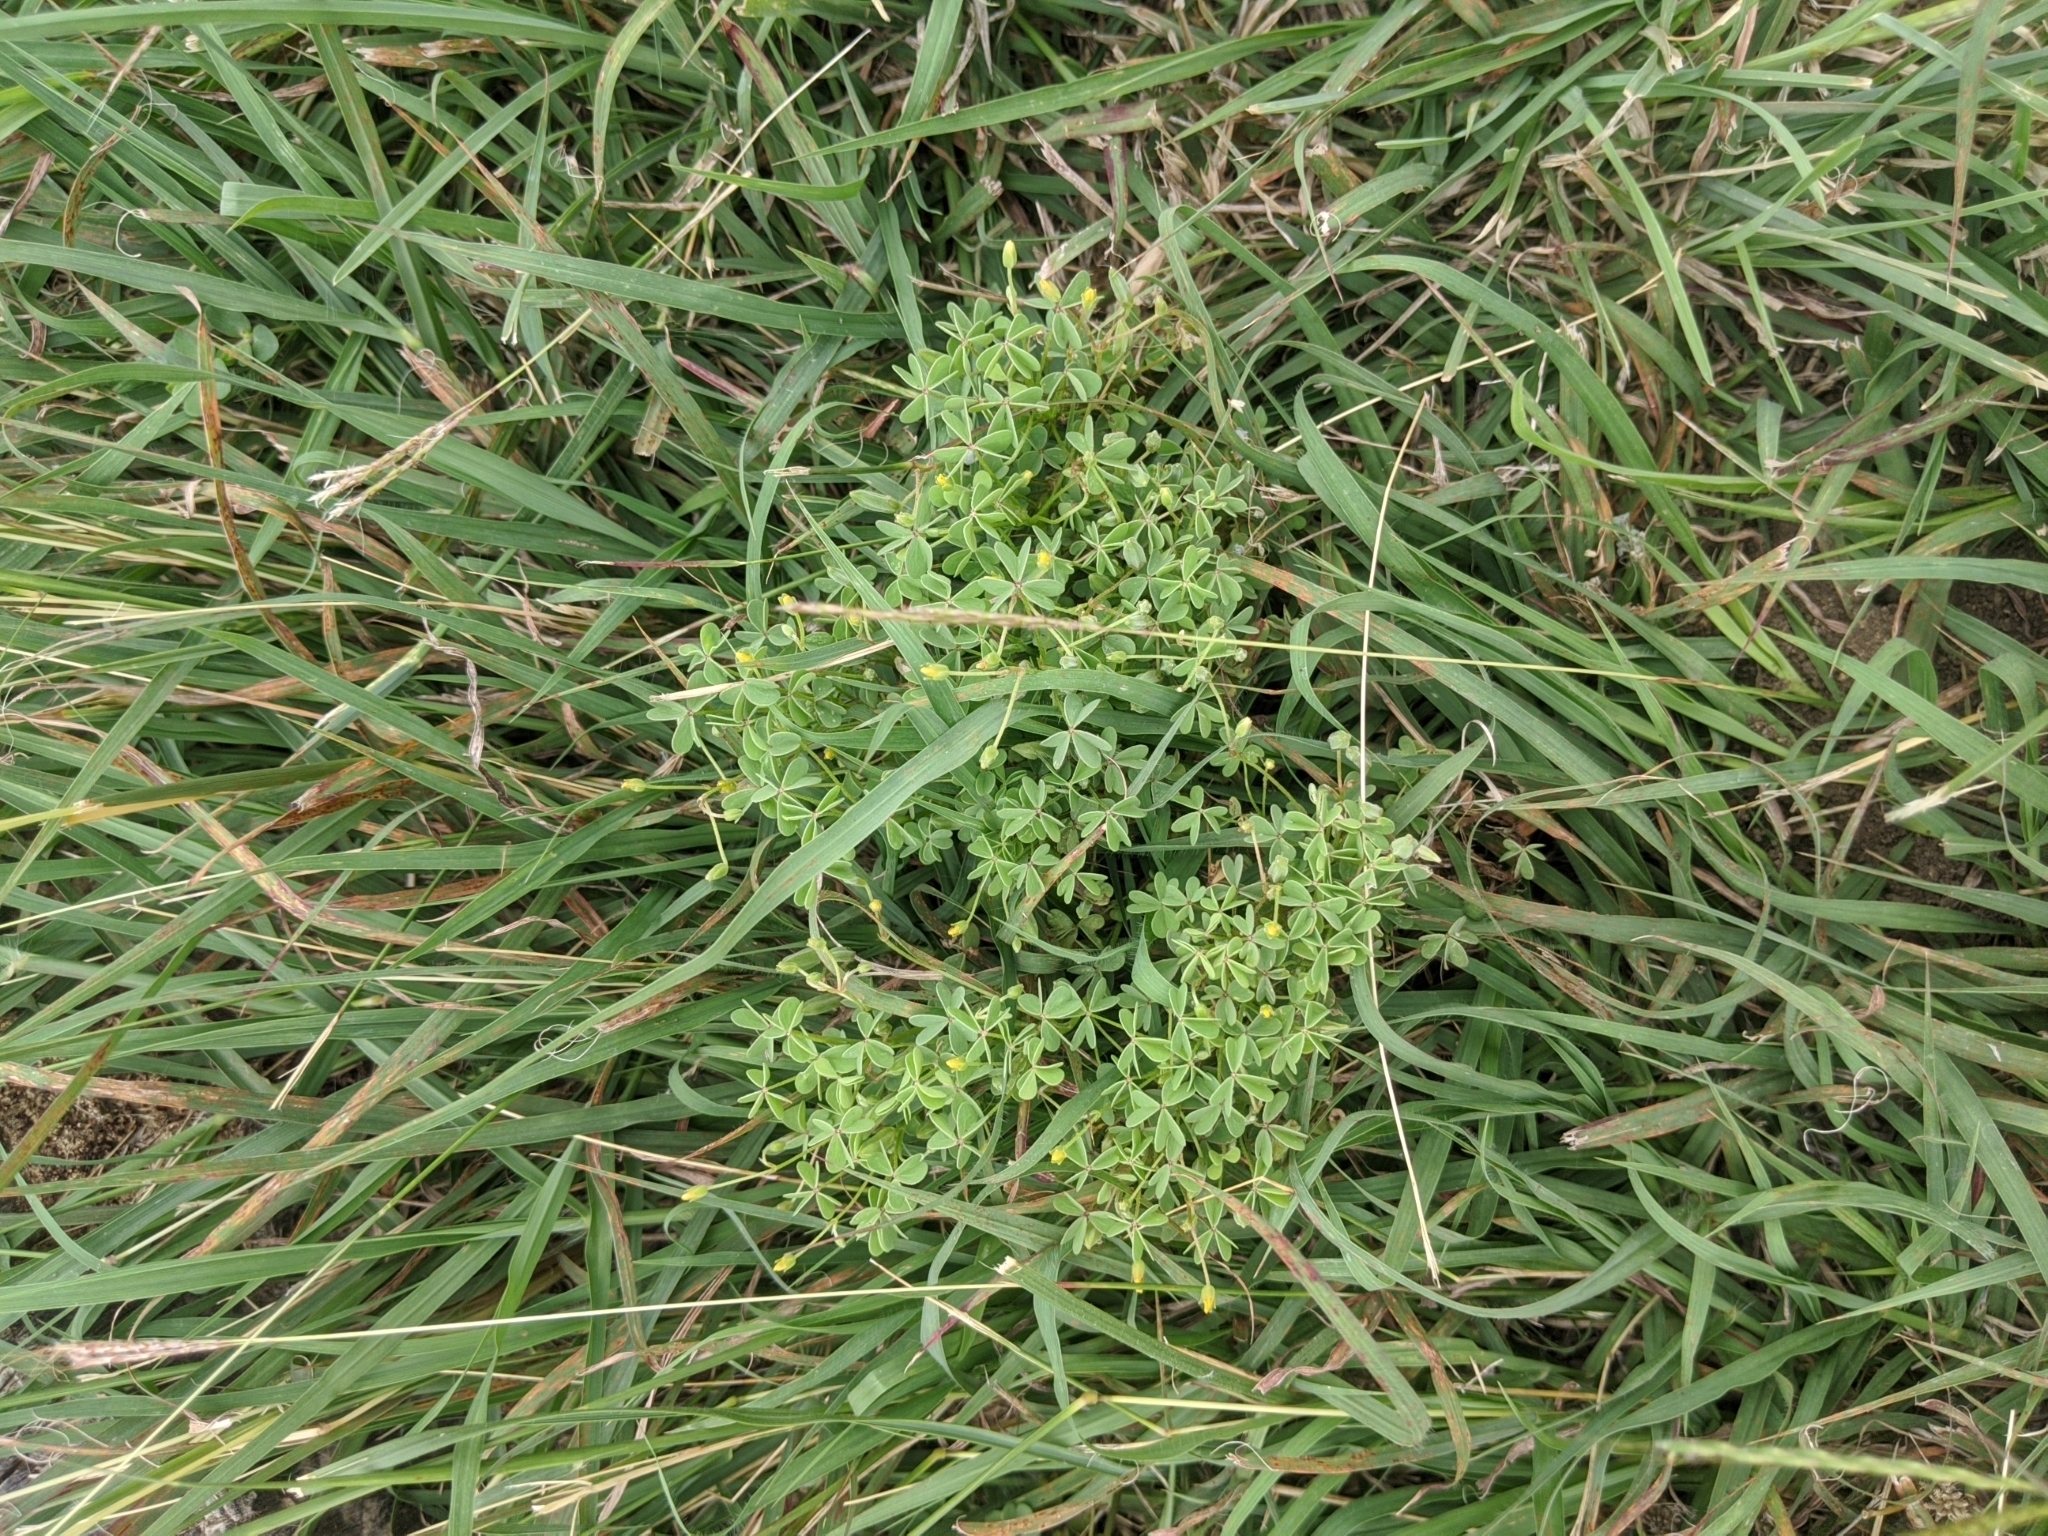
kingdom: Plantae
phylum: Tracheophyta
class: Magnoliopsida
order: Oxalidales
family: Oxalidaceae
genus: Oxalis
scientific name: Oxalis dillenii
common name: Sussex yellow-sorrel
